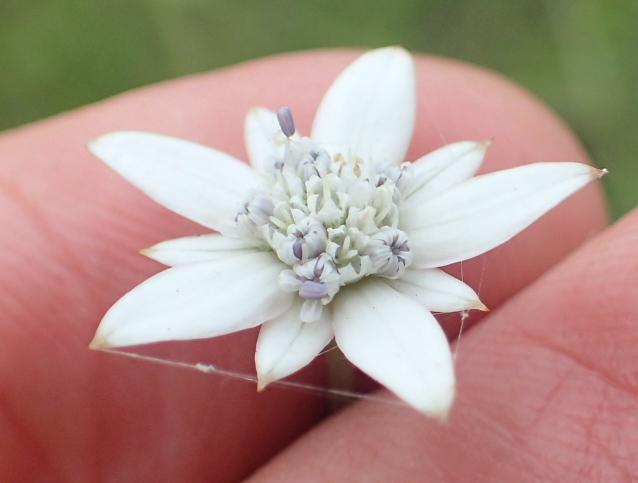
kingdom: Plantae
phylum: Tracheophyta
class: Magnoliopsida
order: Apiales
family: Apiaceae
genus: Alepidea
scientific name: Alepidea peduncularis
